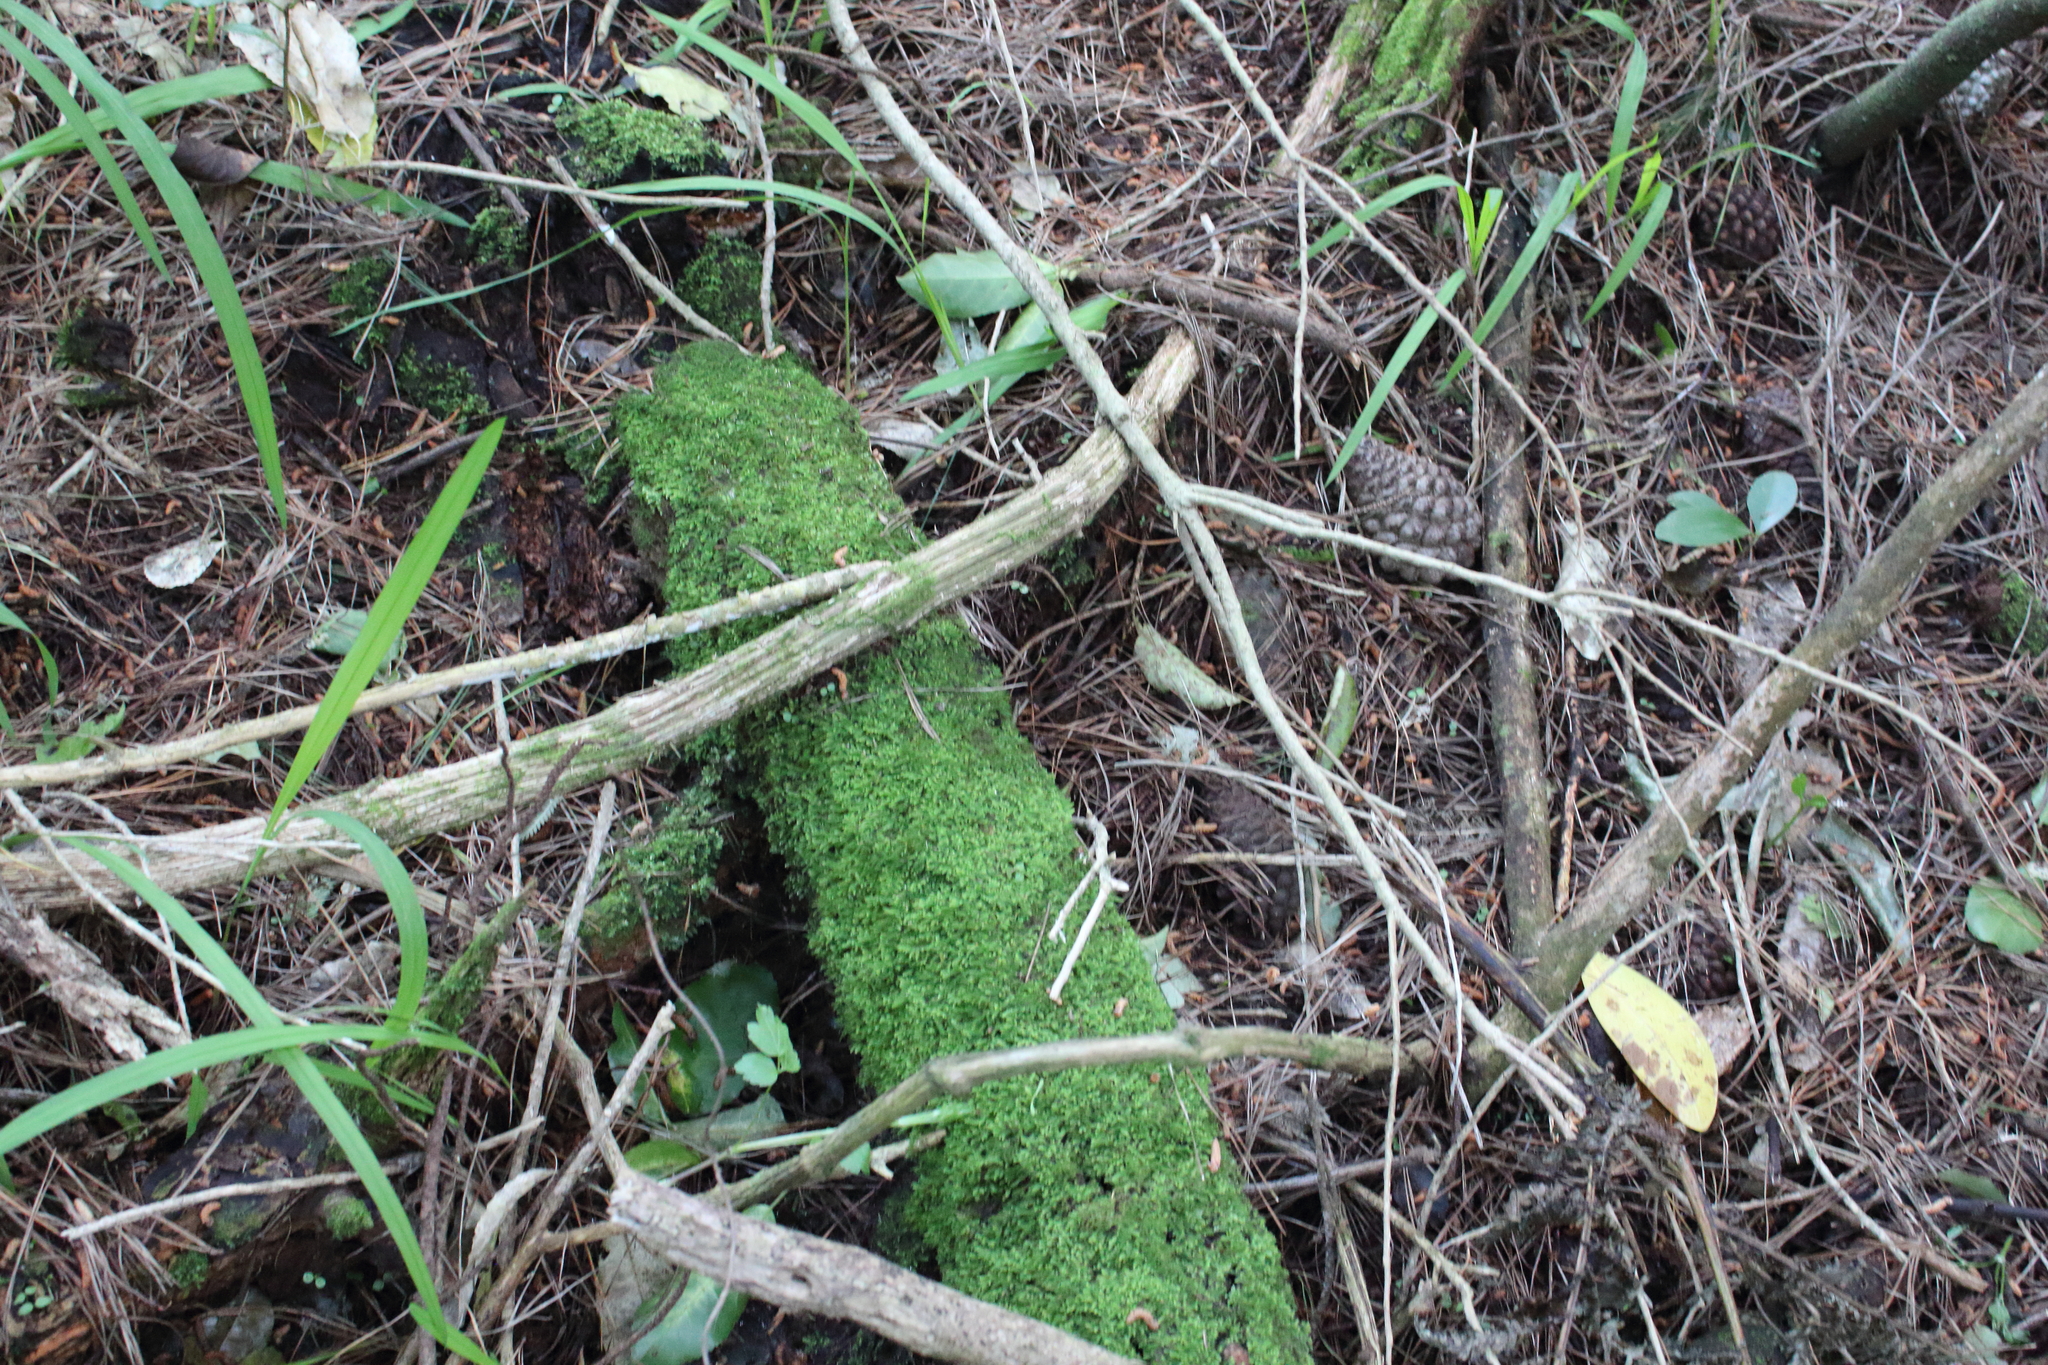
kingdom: Plantae
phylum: Tracheophyta
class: Magnoliopsida
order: Ranunculales
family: Ranunculaceae
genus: Clematis
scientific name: Clematis vitalba
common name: Evergreen clematis
